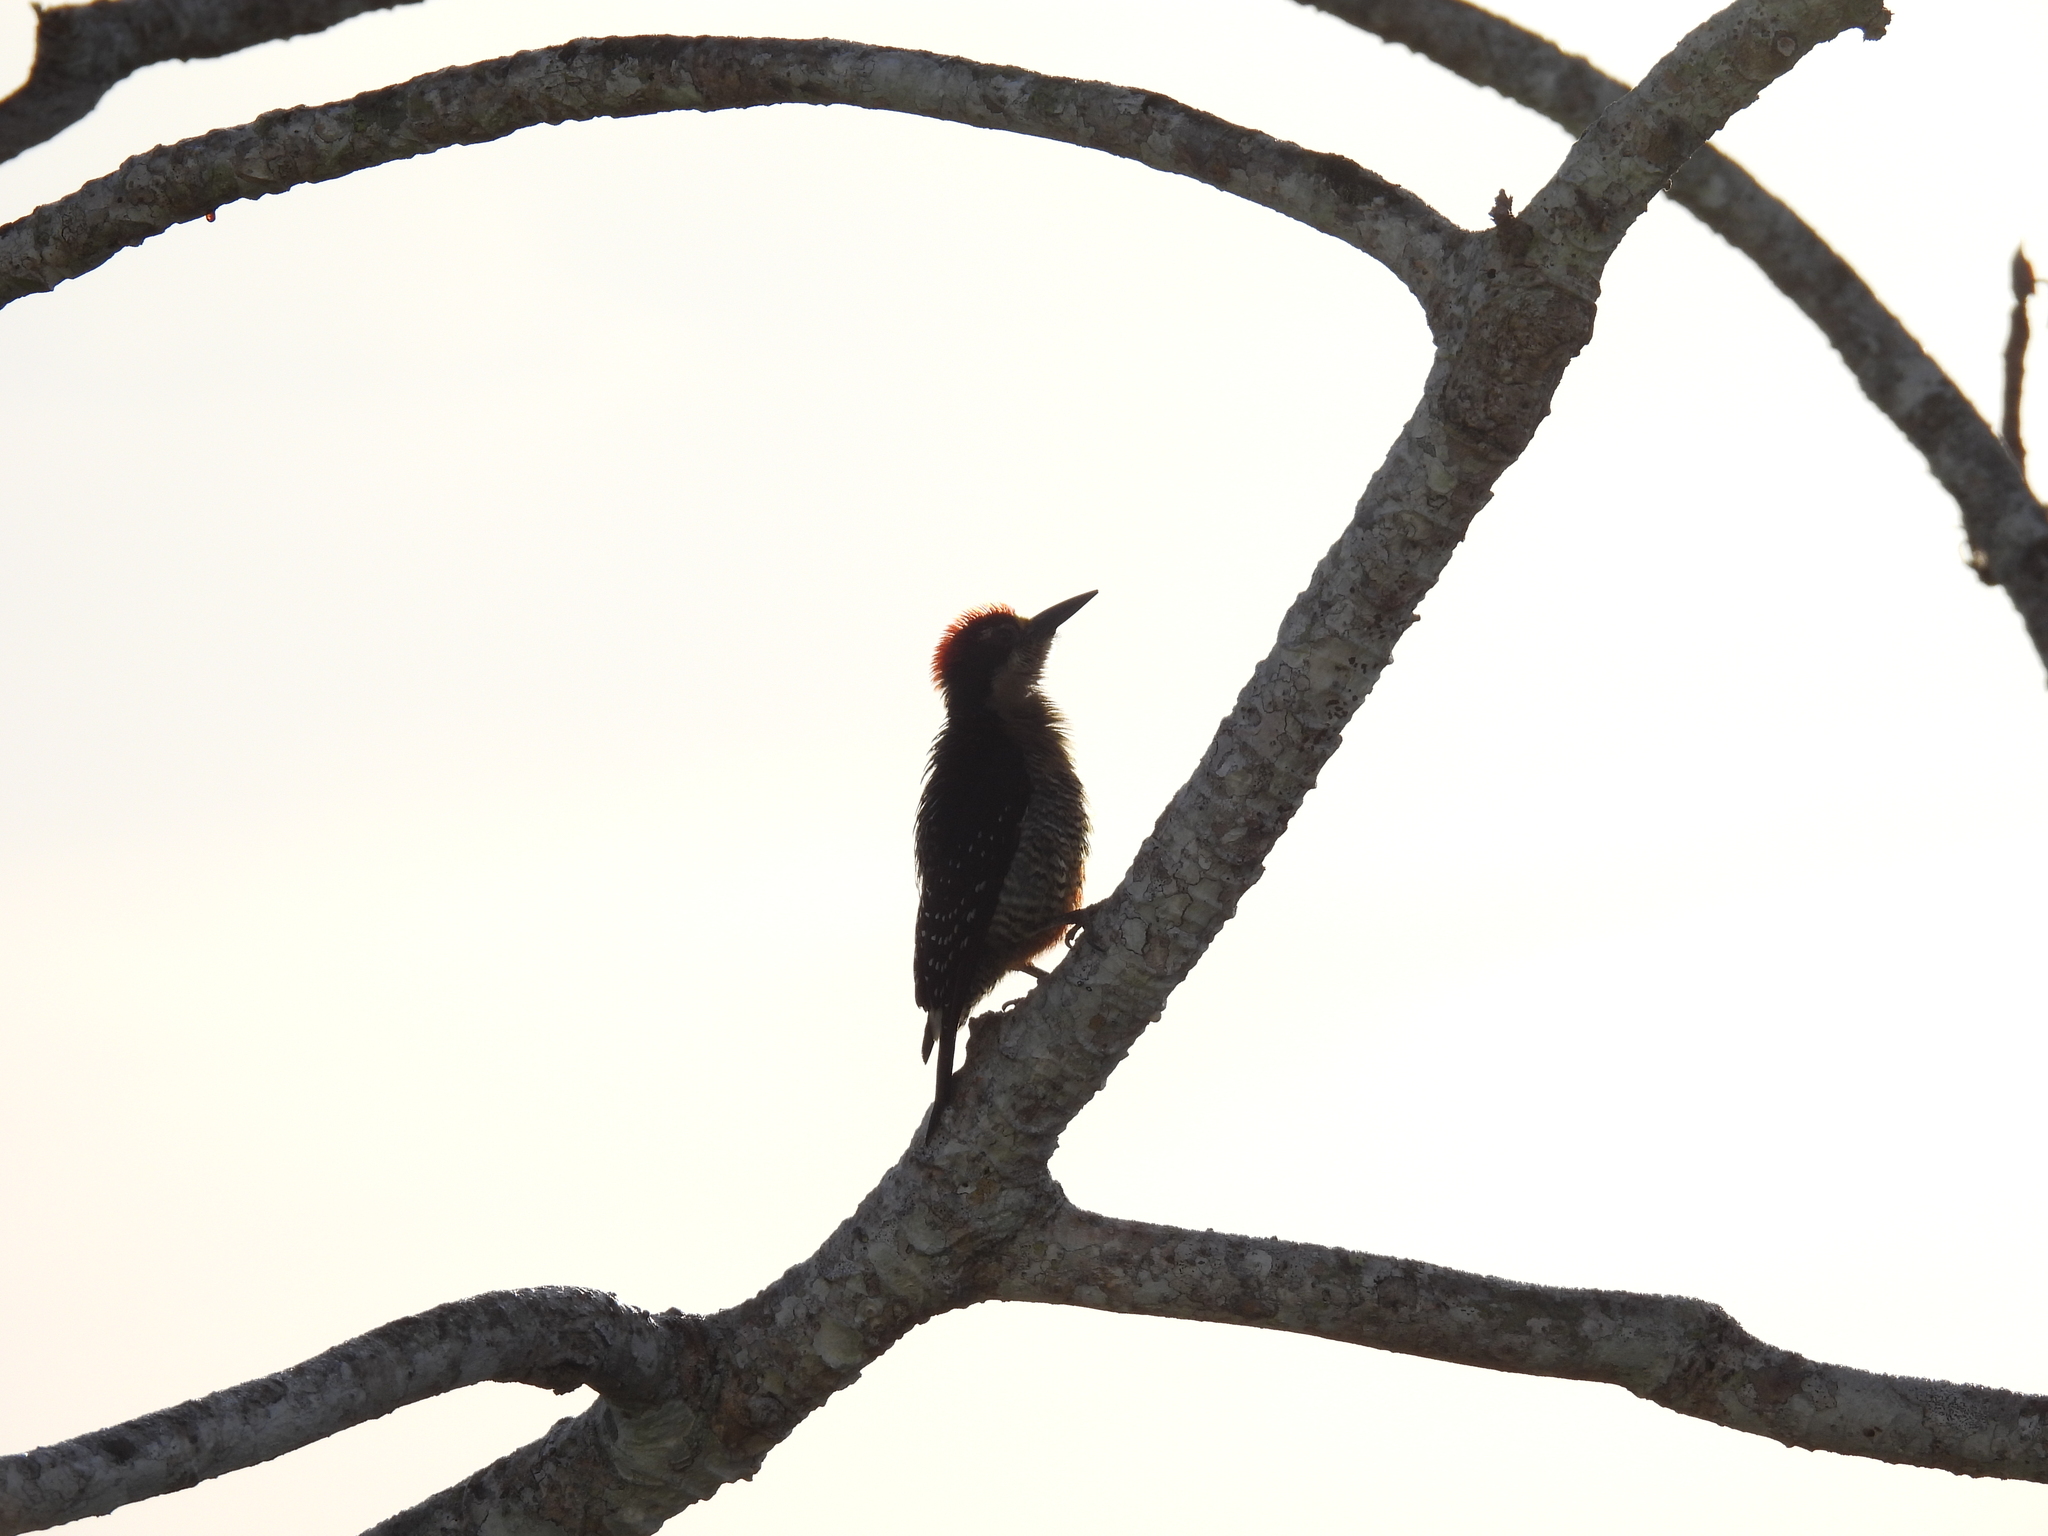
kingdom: Animalia
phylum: Chordata
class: Aves
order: Piciformes
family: Picidae
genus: Melanerpes
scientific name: Melanerpes rubricapillus
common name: Red-crowned woodpecker
